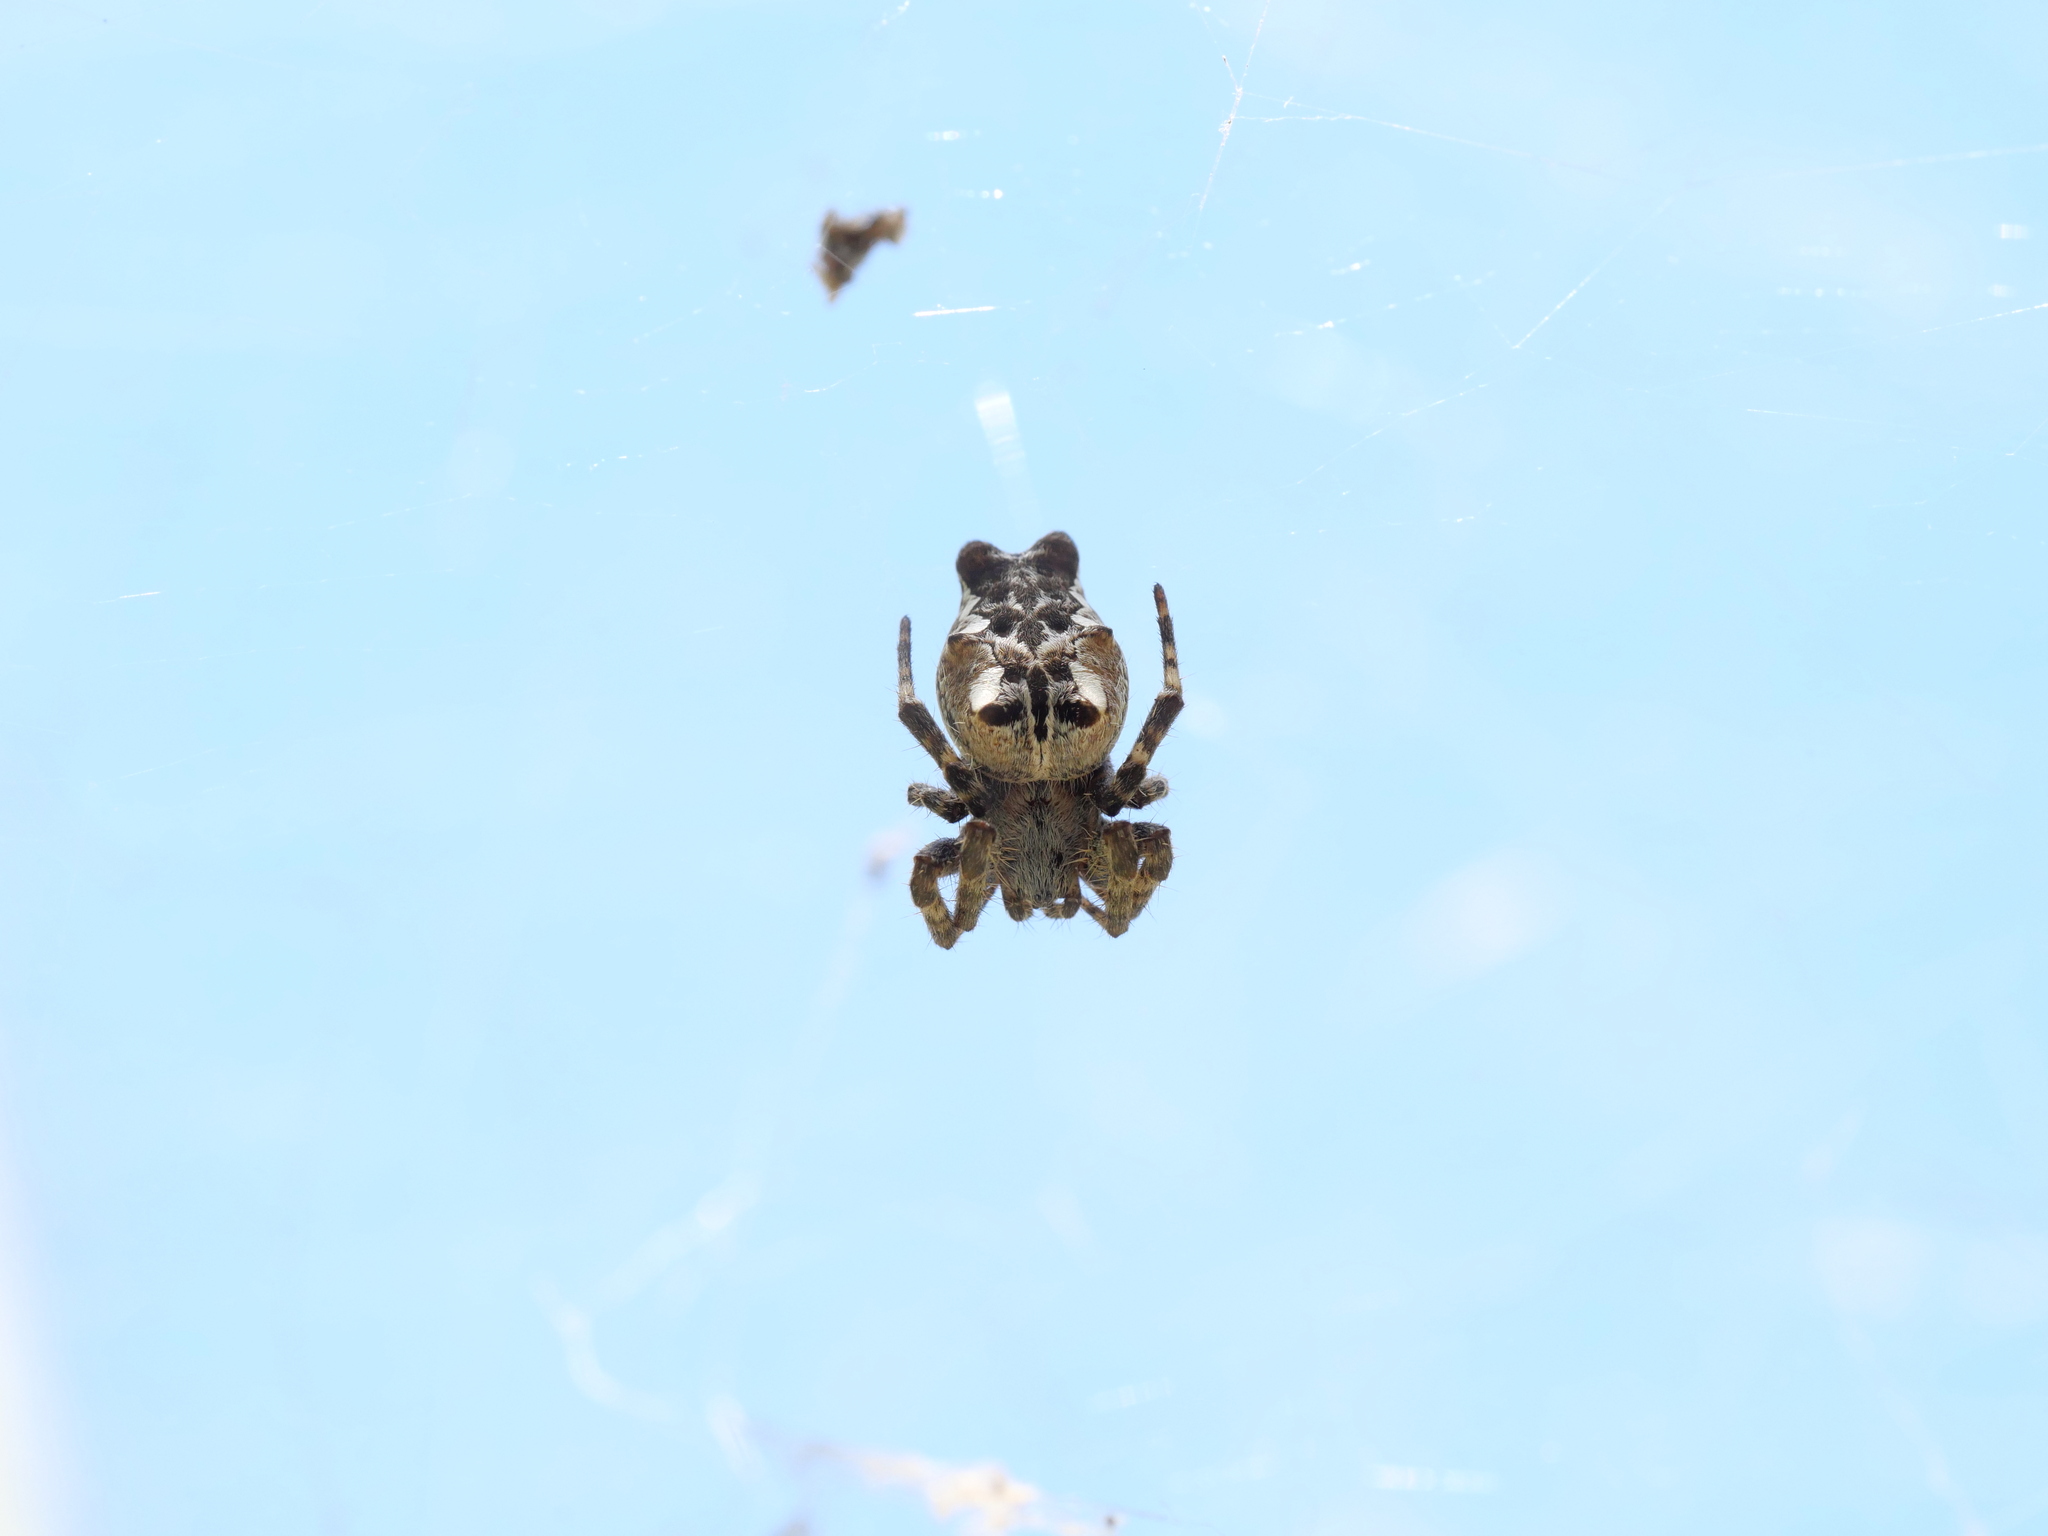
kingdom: Animalia
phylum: Arthropoda
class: Arachnida
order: Araneae
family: Araneidae
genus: Cyrtophora
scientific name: Cyrtophora citricola
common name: Orb weavers
